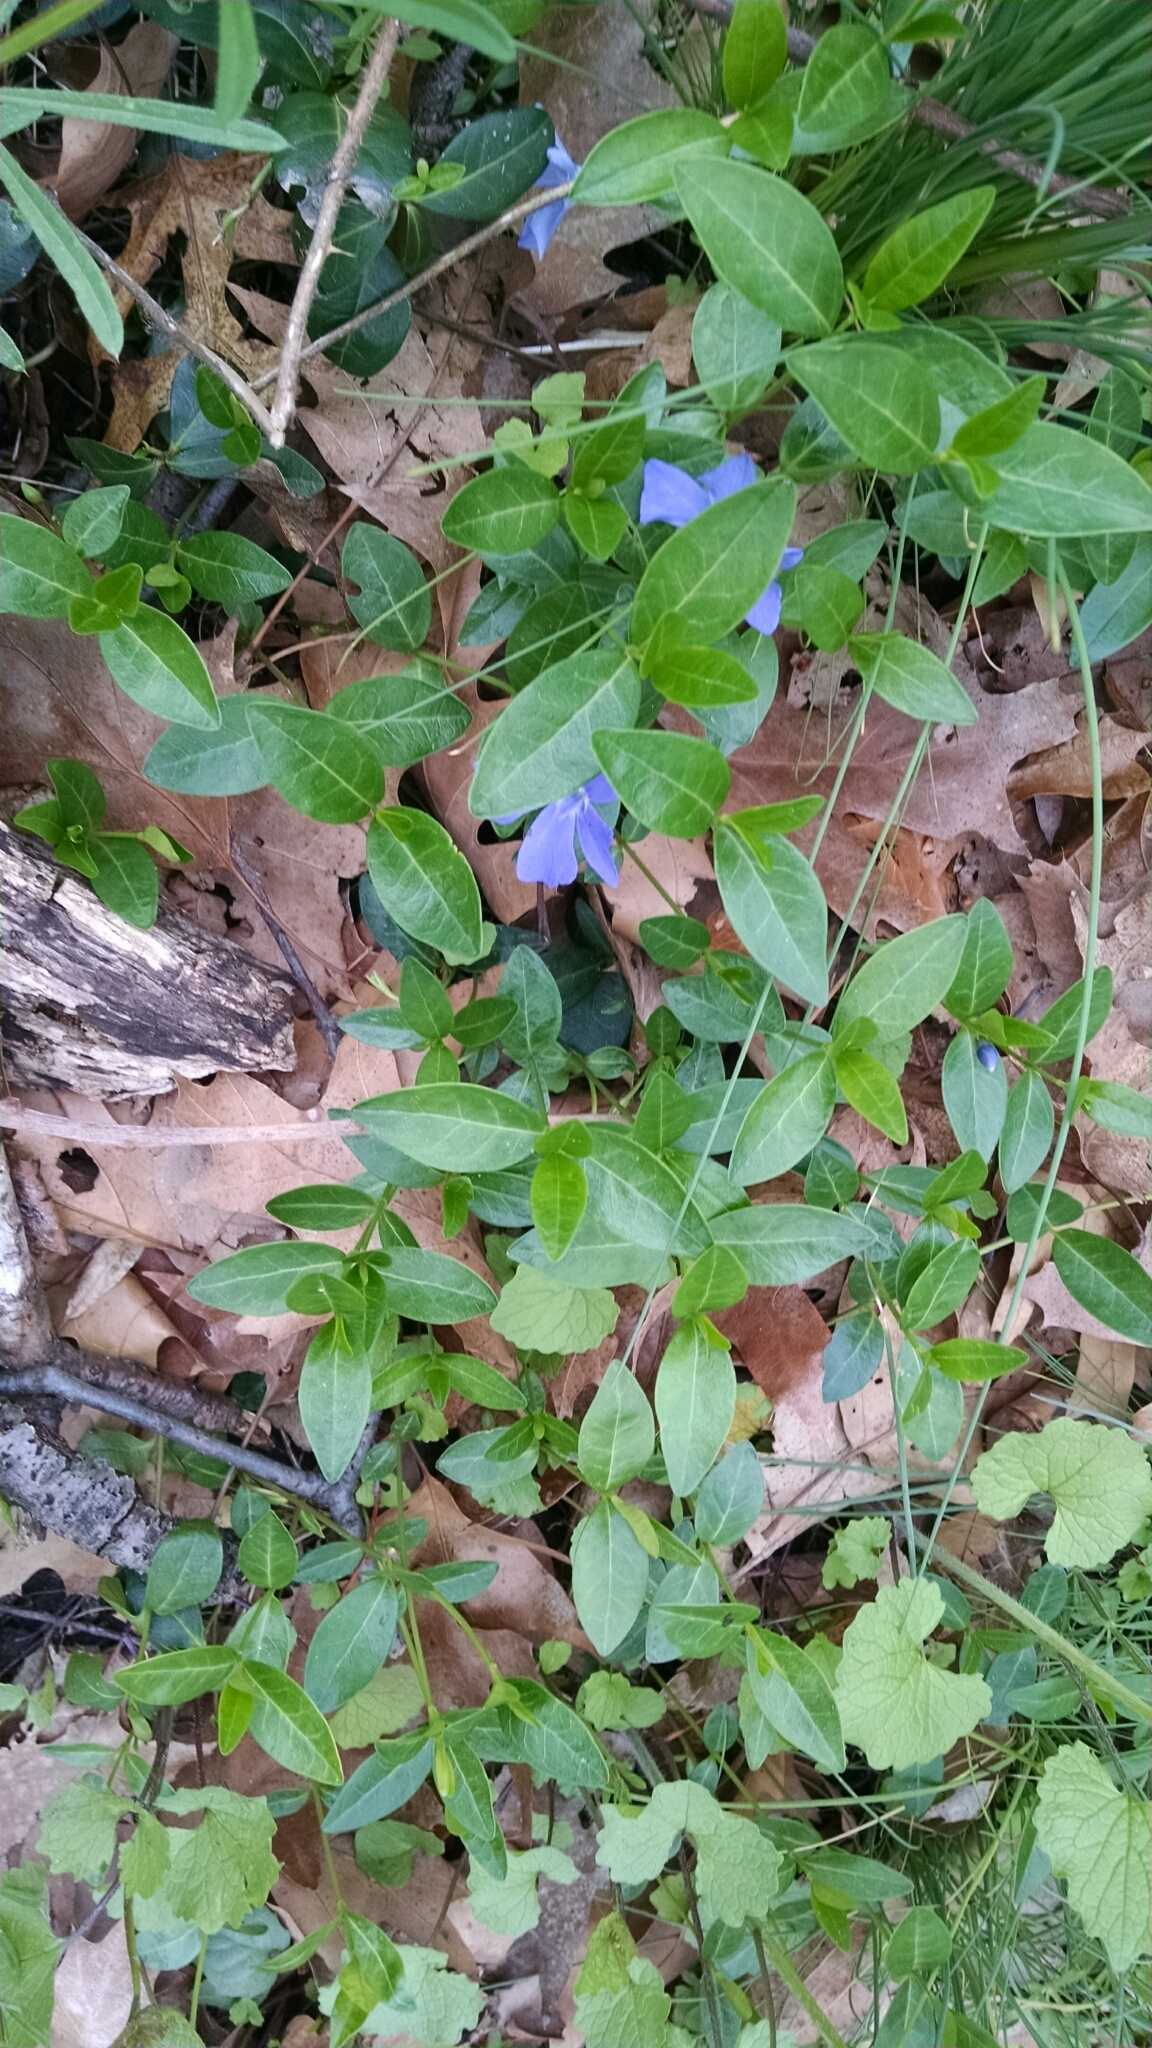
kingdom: Plantae
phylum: Tracheophyta
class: Magnoliopsida
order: Gentianales
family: Apocynaceae
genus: Vinca
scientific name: Vinca minor
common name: Lesser periwinkle
